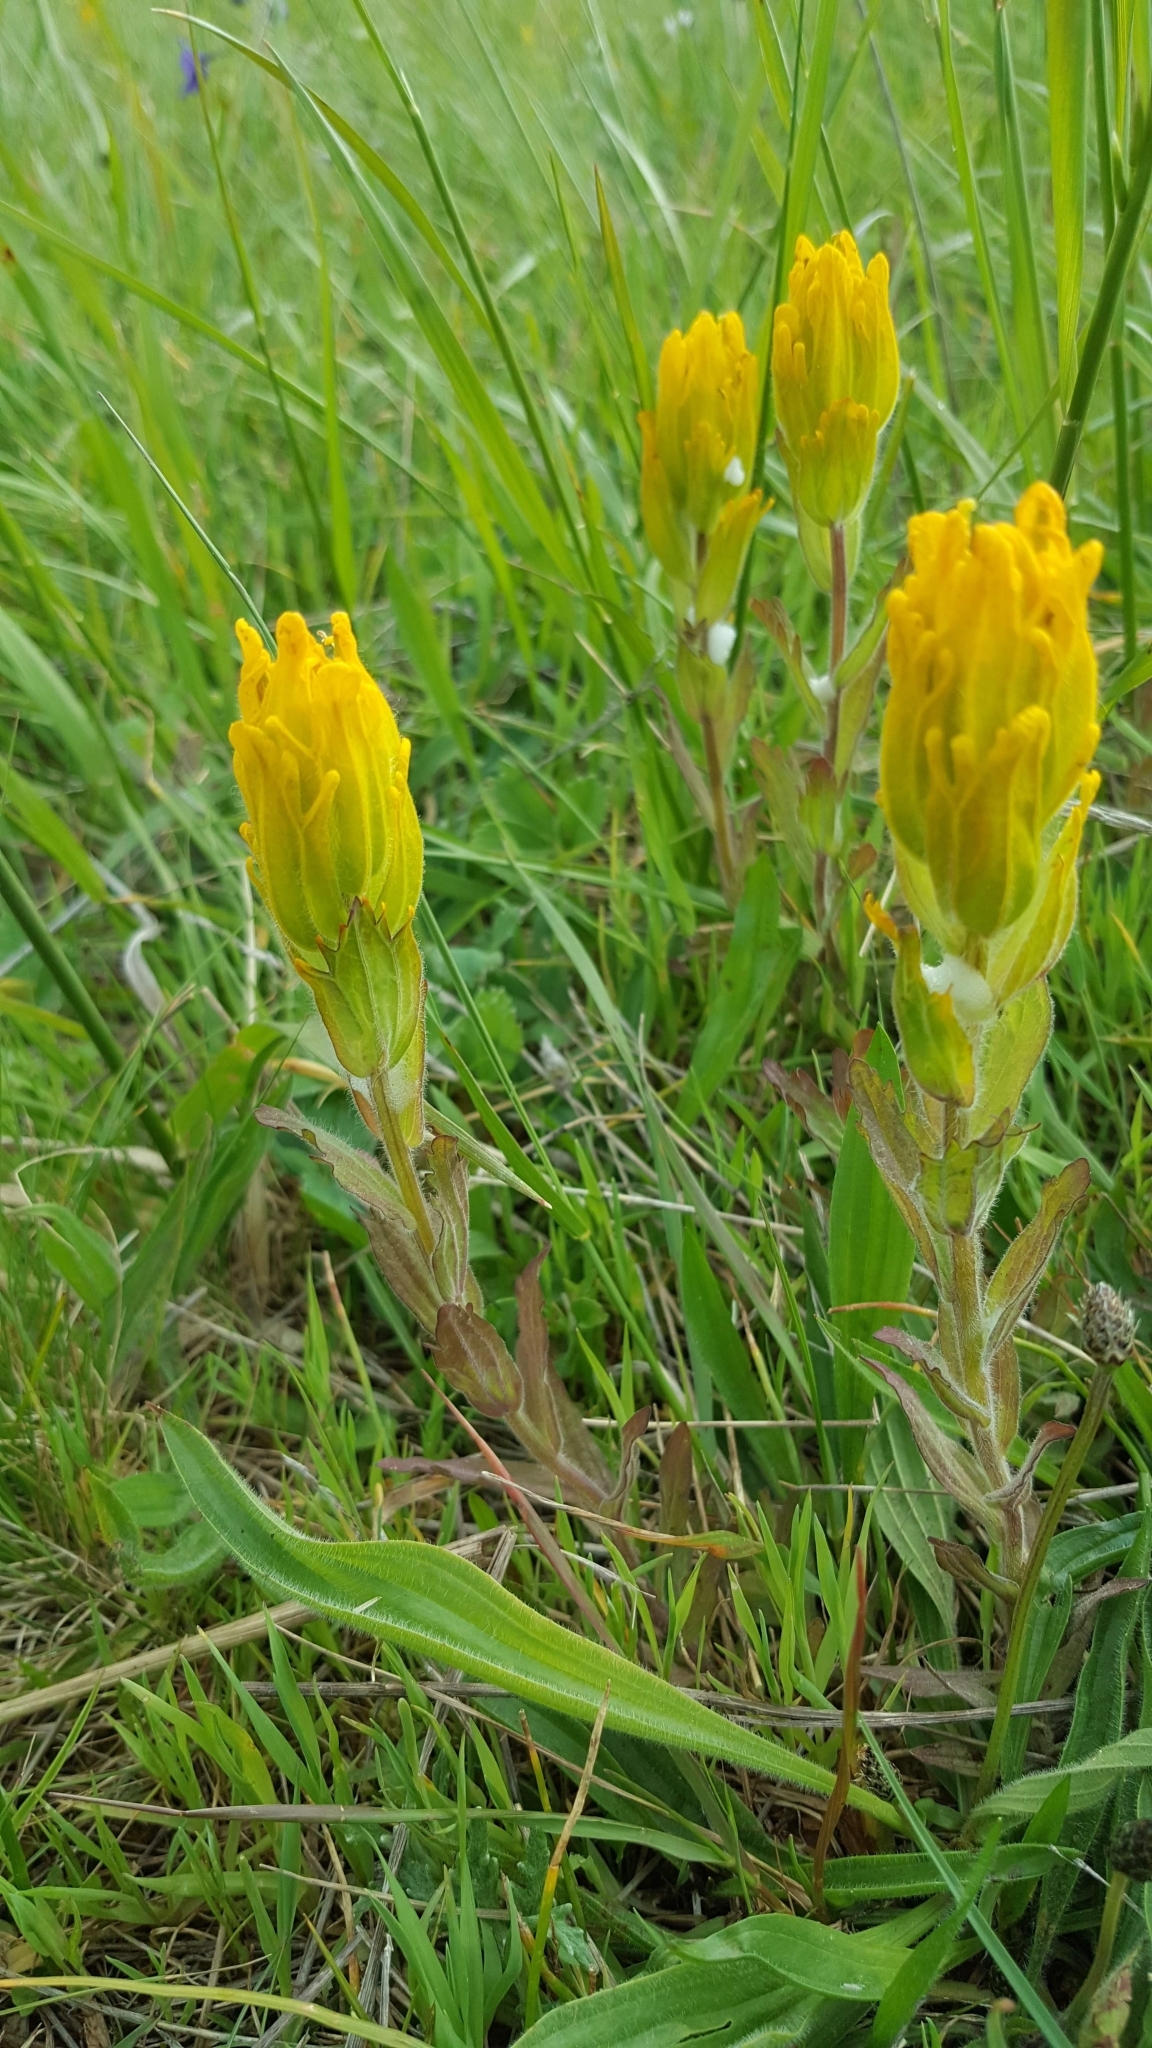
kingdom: Plantae
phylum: Tracheophyta
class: Magnoliopsida
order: Lamiales
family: Orobanchaceae
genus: Castilleja
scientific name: Castilleja levisecta
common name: Golden paintbrush
